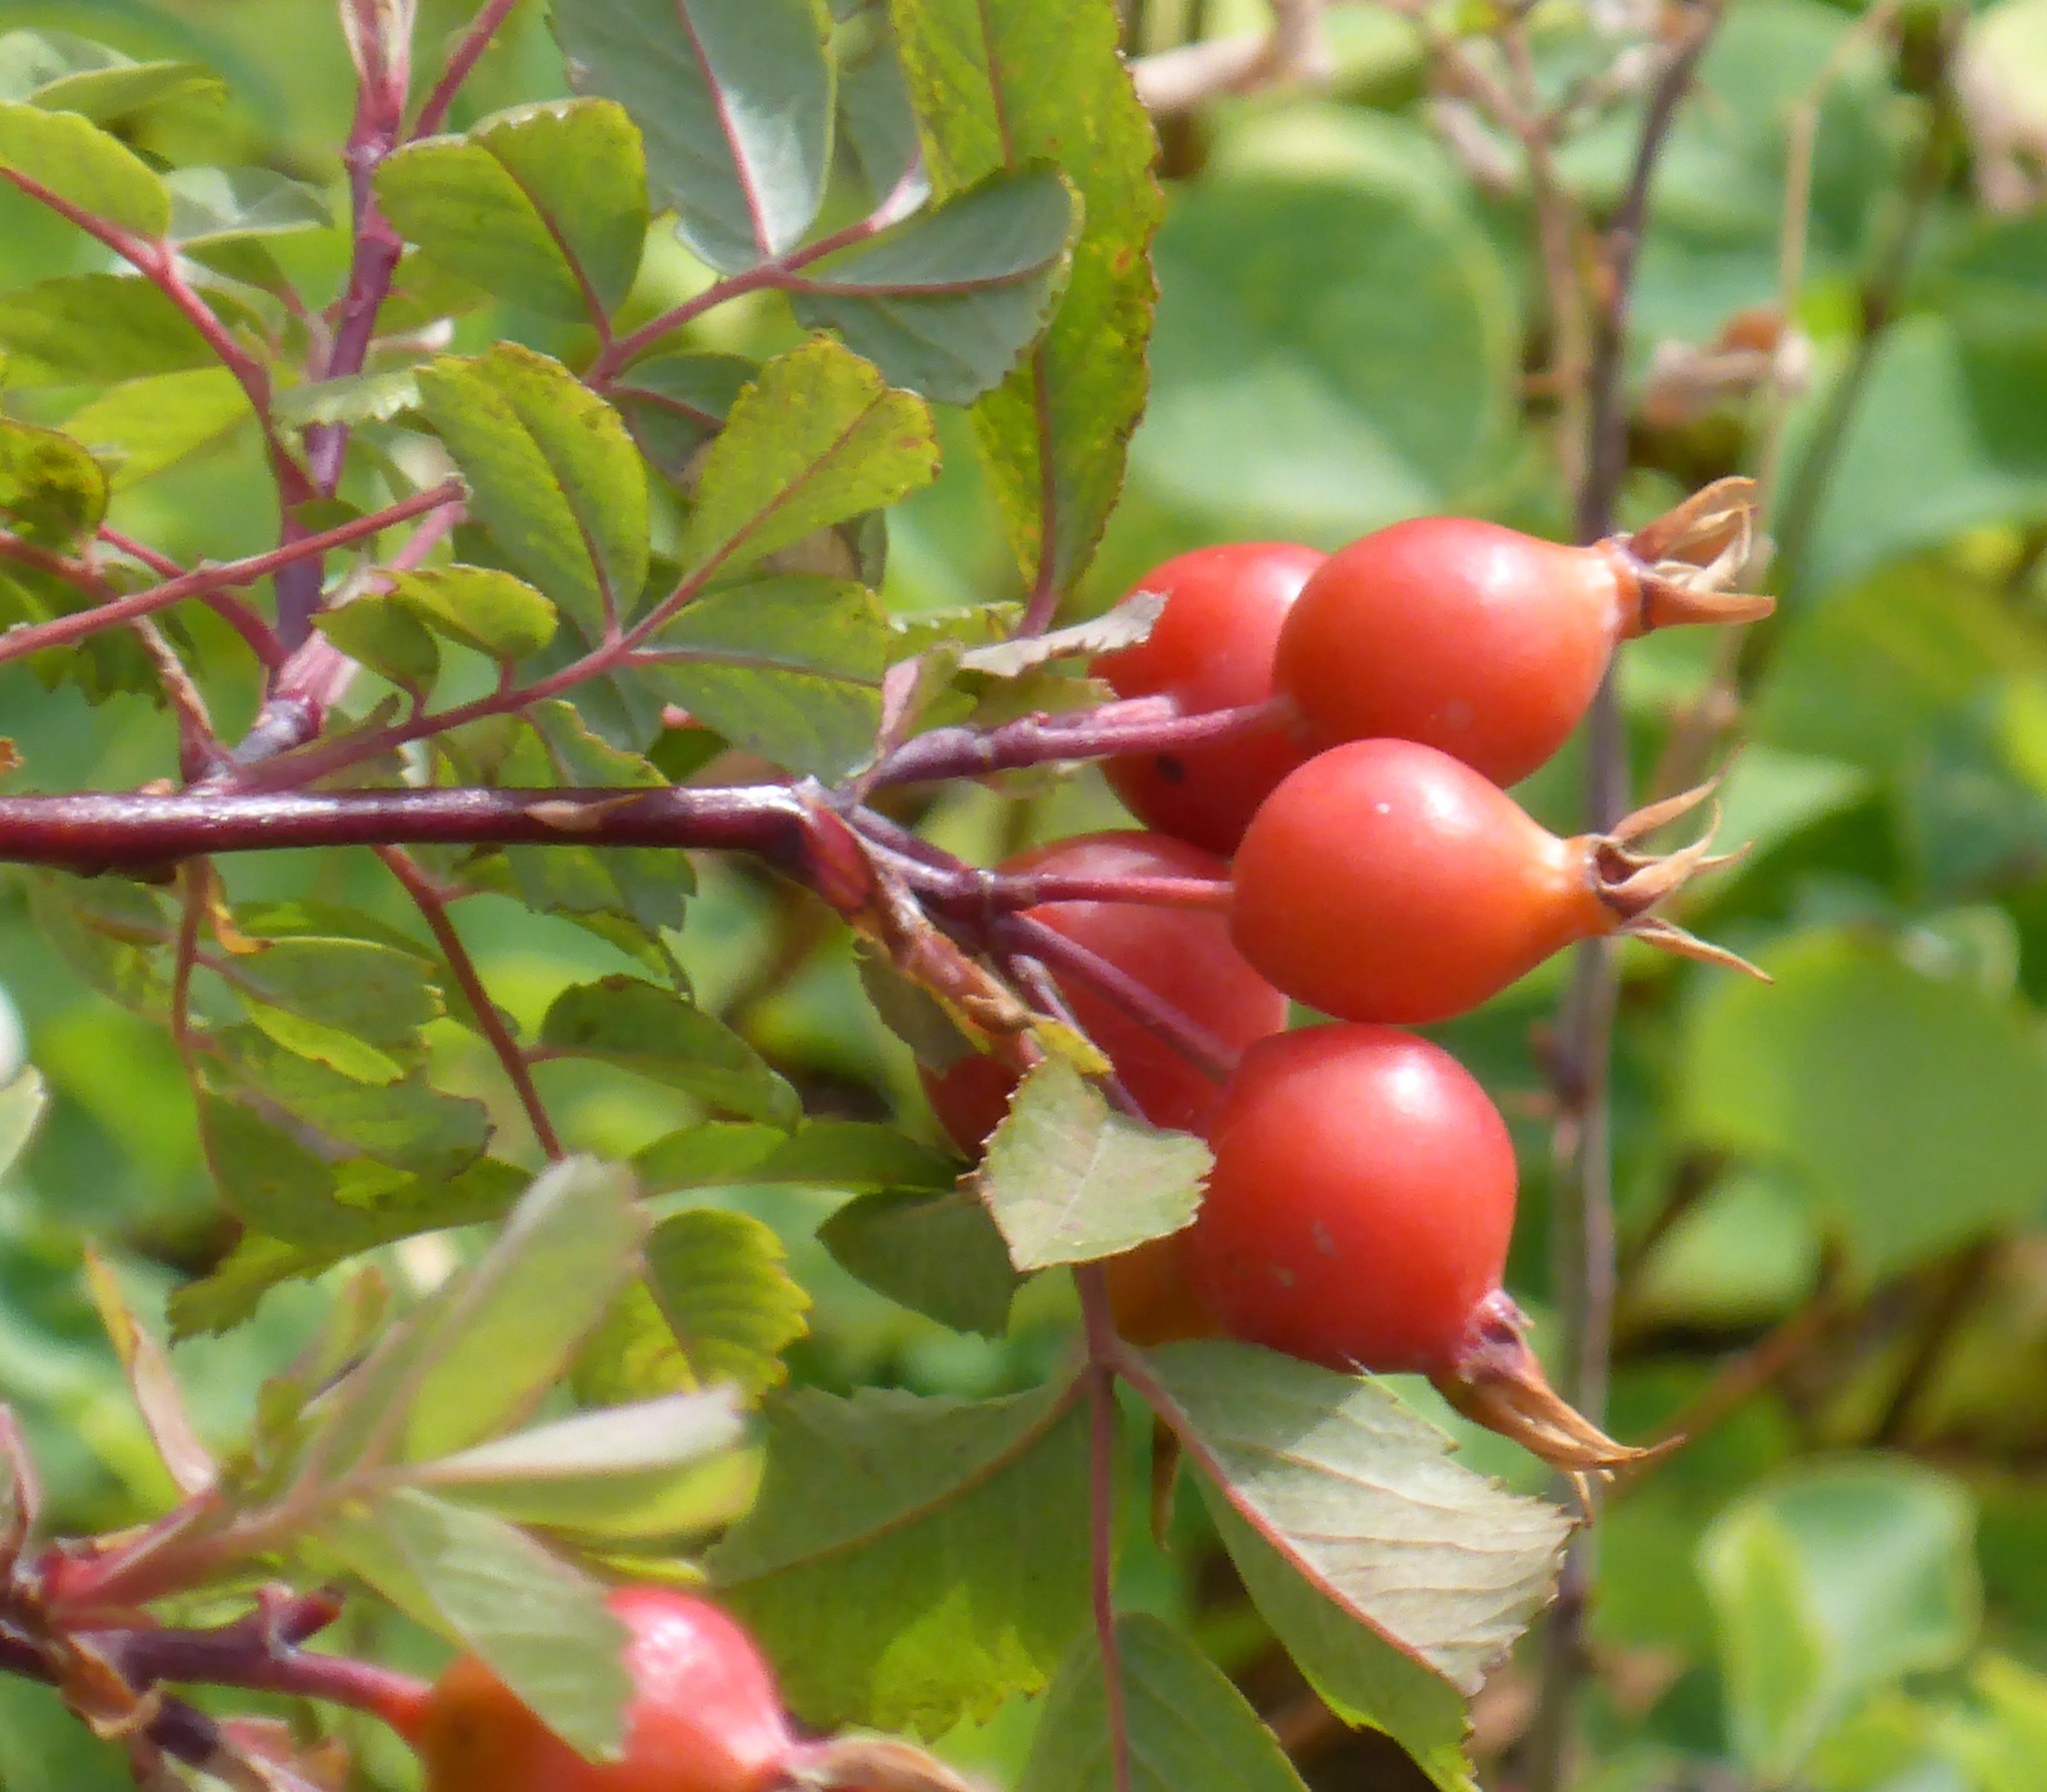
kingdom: Plantae
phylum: Tracheophyta
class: Magnoliopsida
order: Rosales
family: Rosaceae
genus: Rosa
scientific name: Rosa woodsii
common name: Woods's rose
